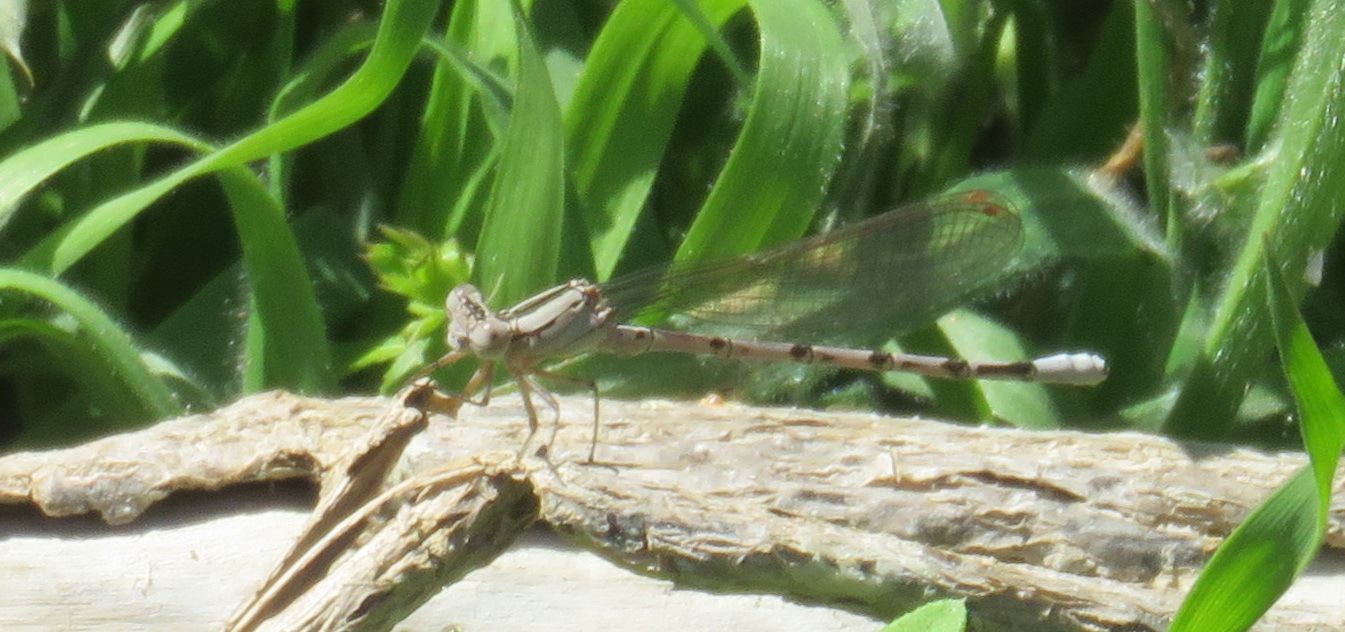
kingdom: Animalia
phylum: Arthropoda
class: Insecta
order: Odonata
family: Coenagrionidae
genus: Argia
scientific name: Argia funebris
